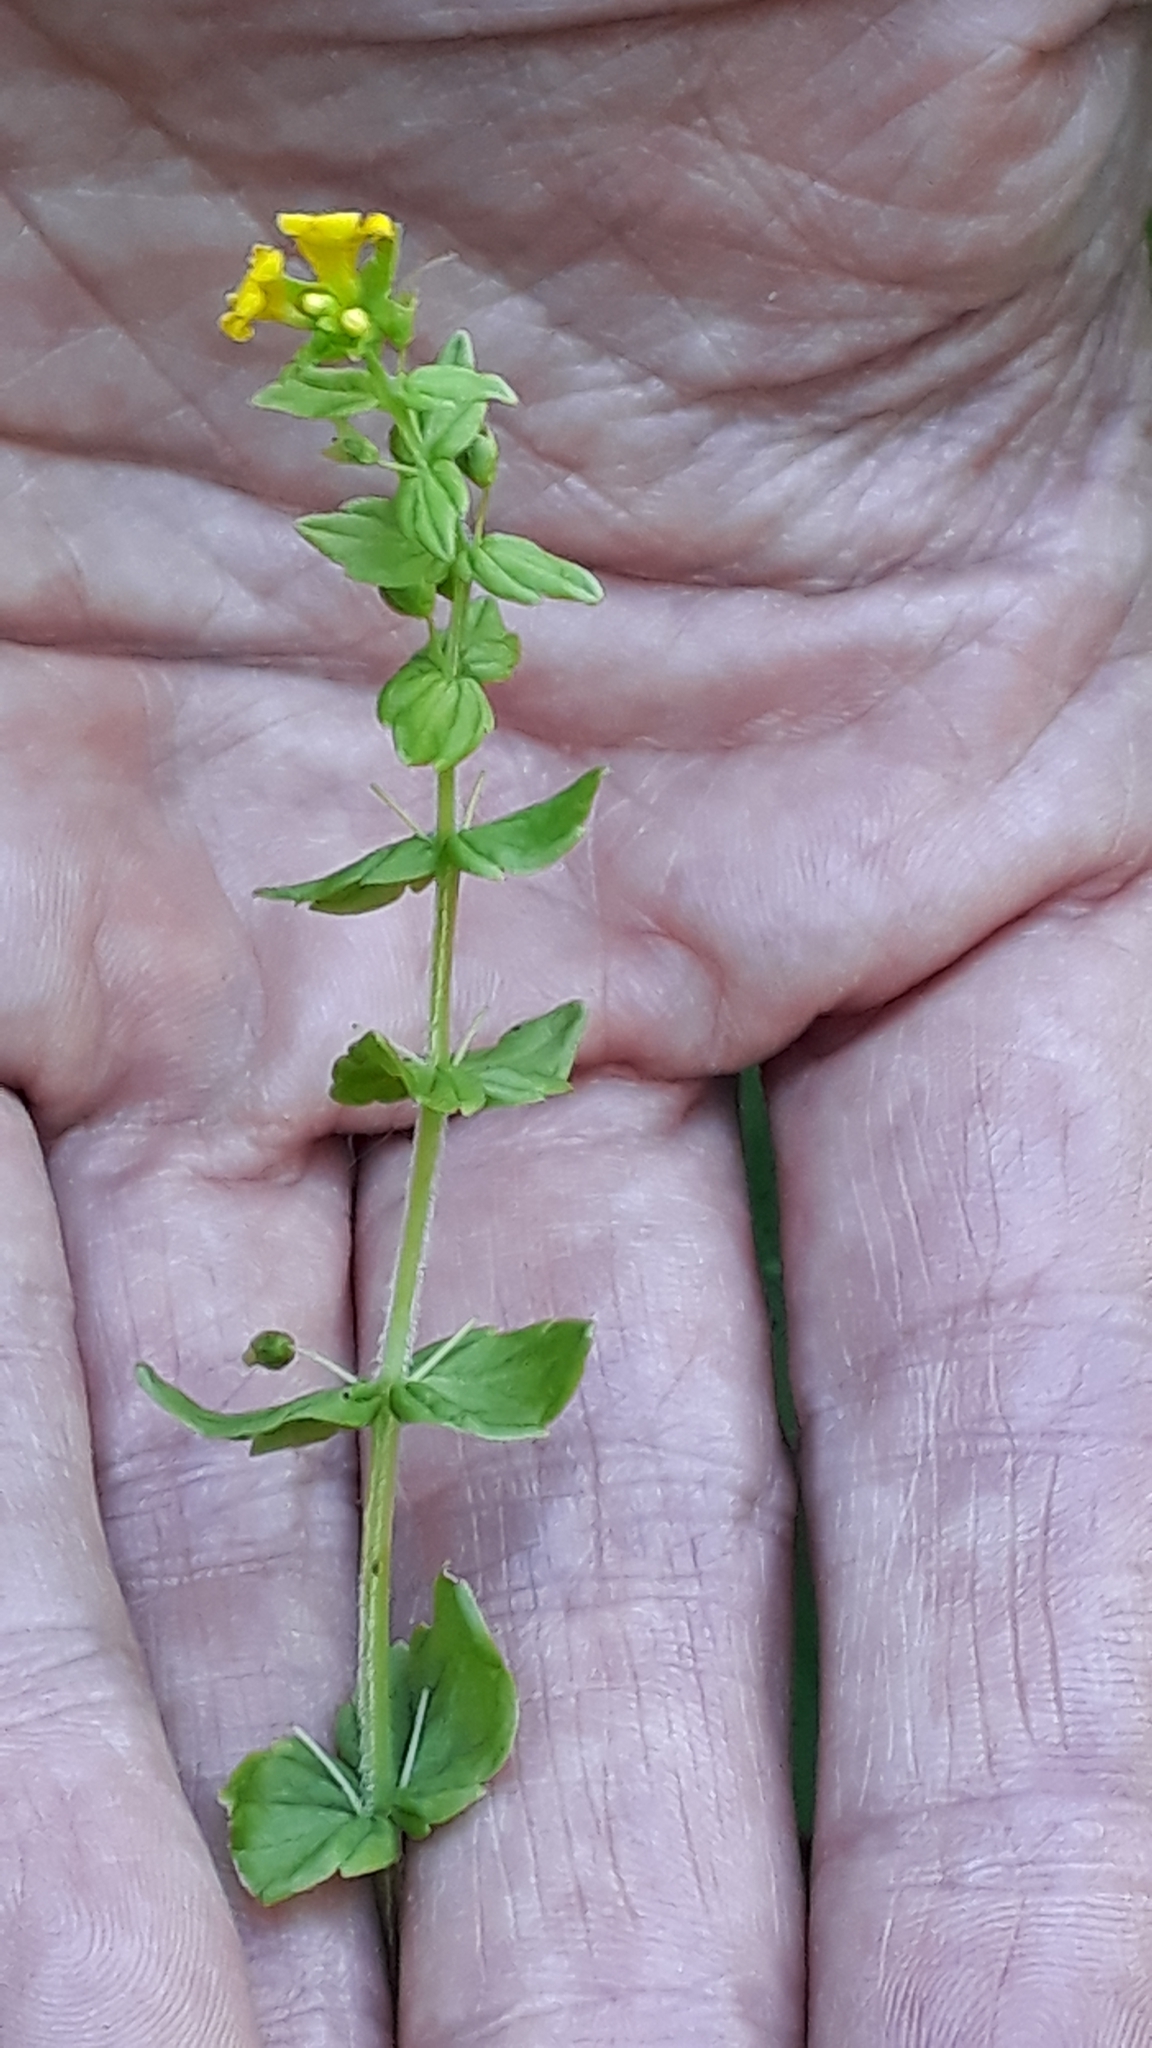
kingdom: Plantae
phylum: Tracheophyta
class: Magnoliopsida
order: Lamiales
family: Orobanchaceae
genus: Tozzia
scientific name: Tozzia alpina
